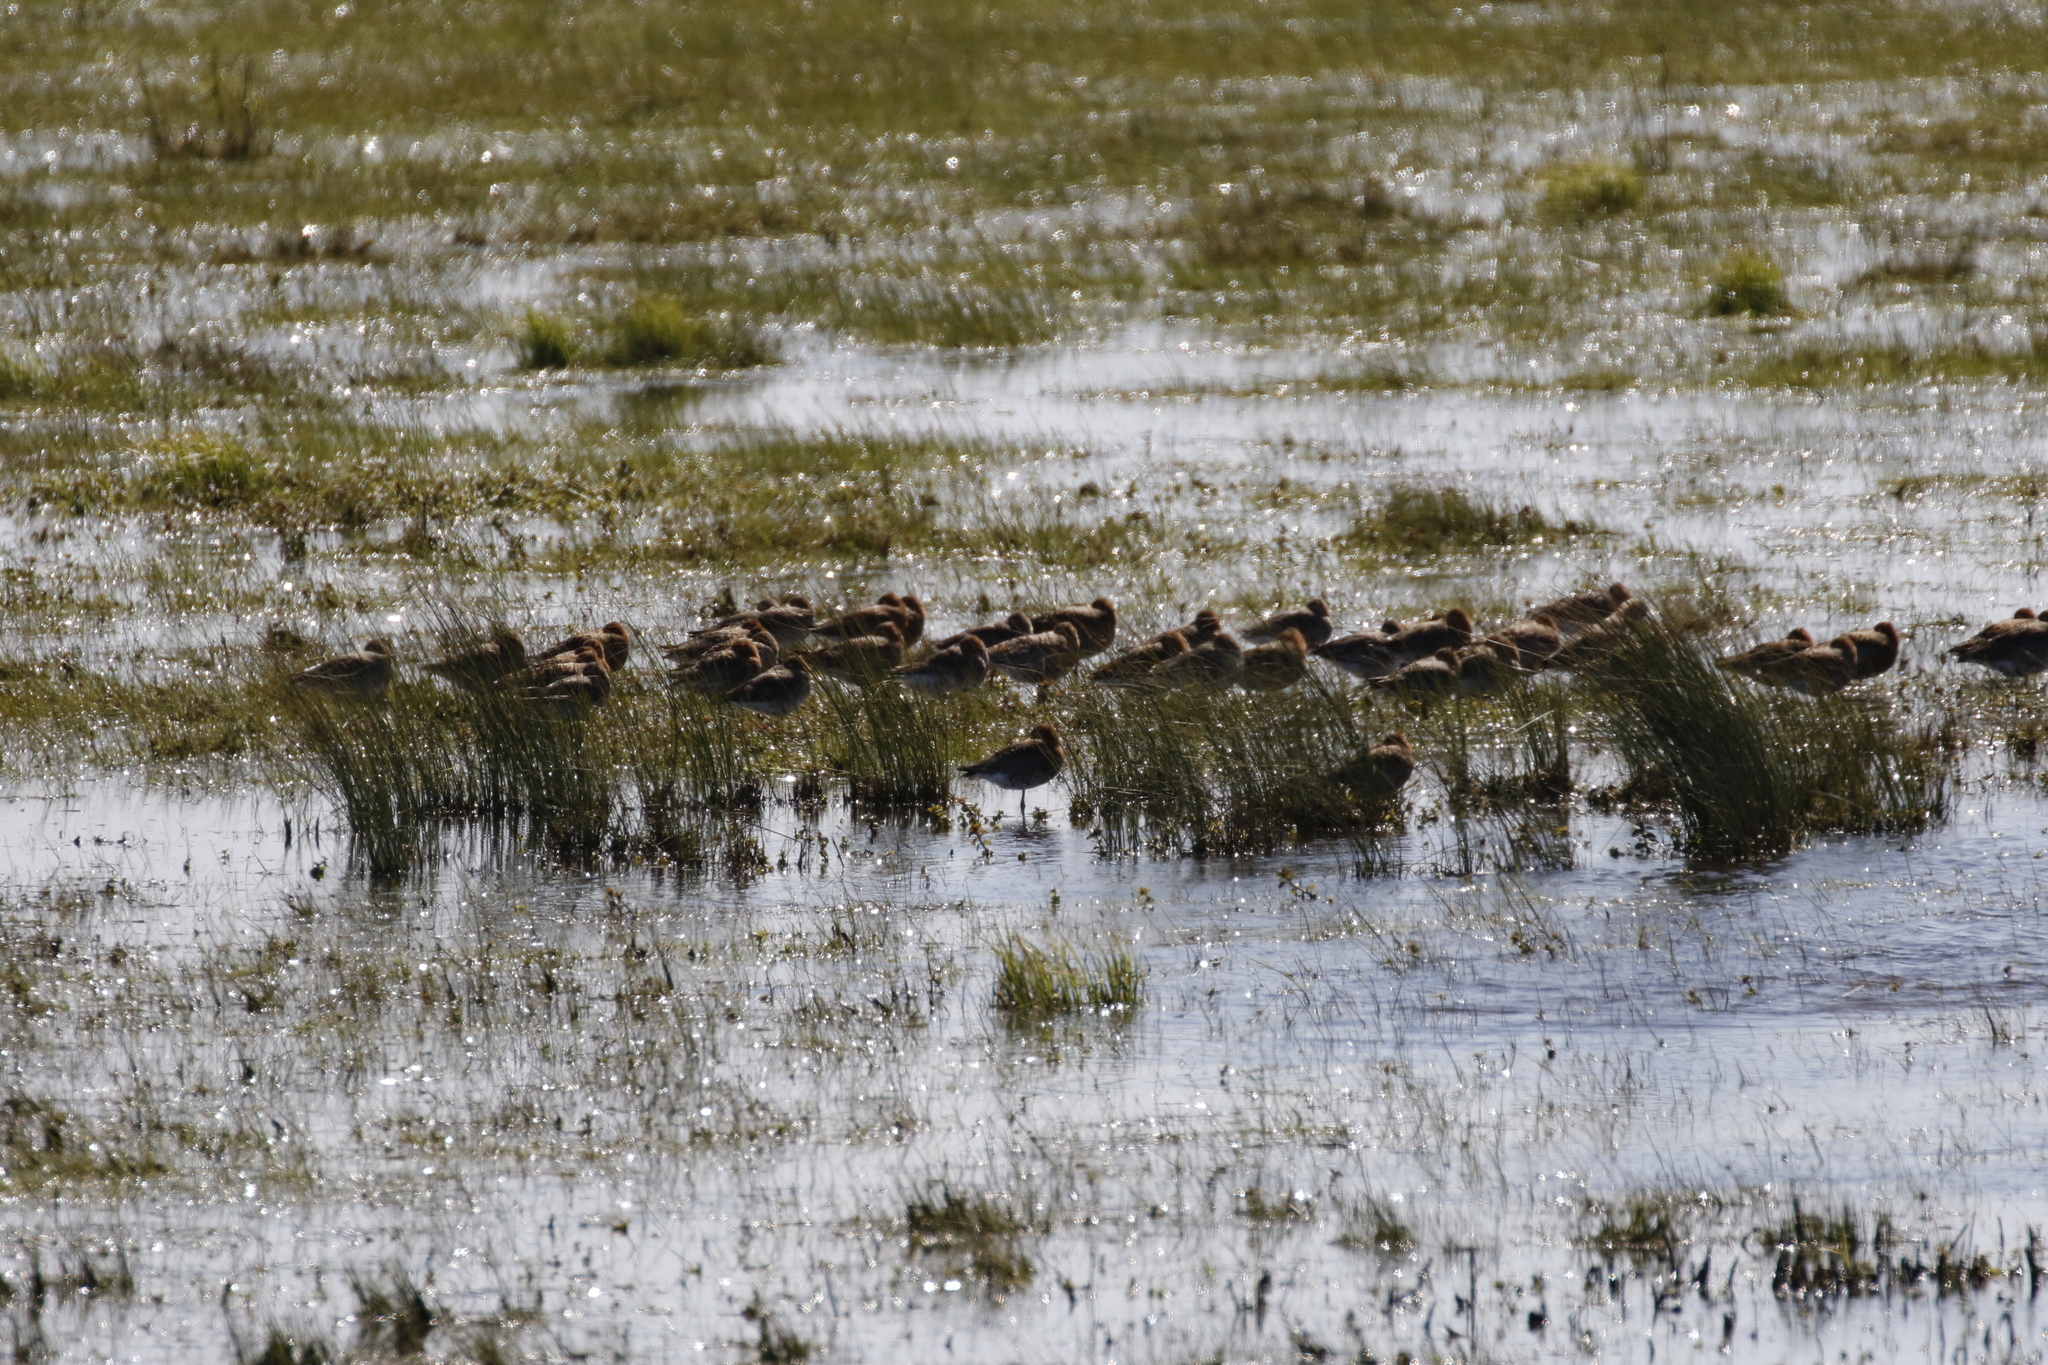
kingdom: Animalia
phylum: Chordata
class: Aves
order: Charadriiformes
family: Scolopacidae
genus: Limosa
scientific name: Limosa limosa
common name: Black-tailed godwit
